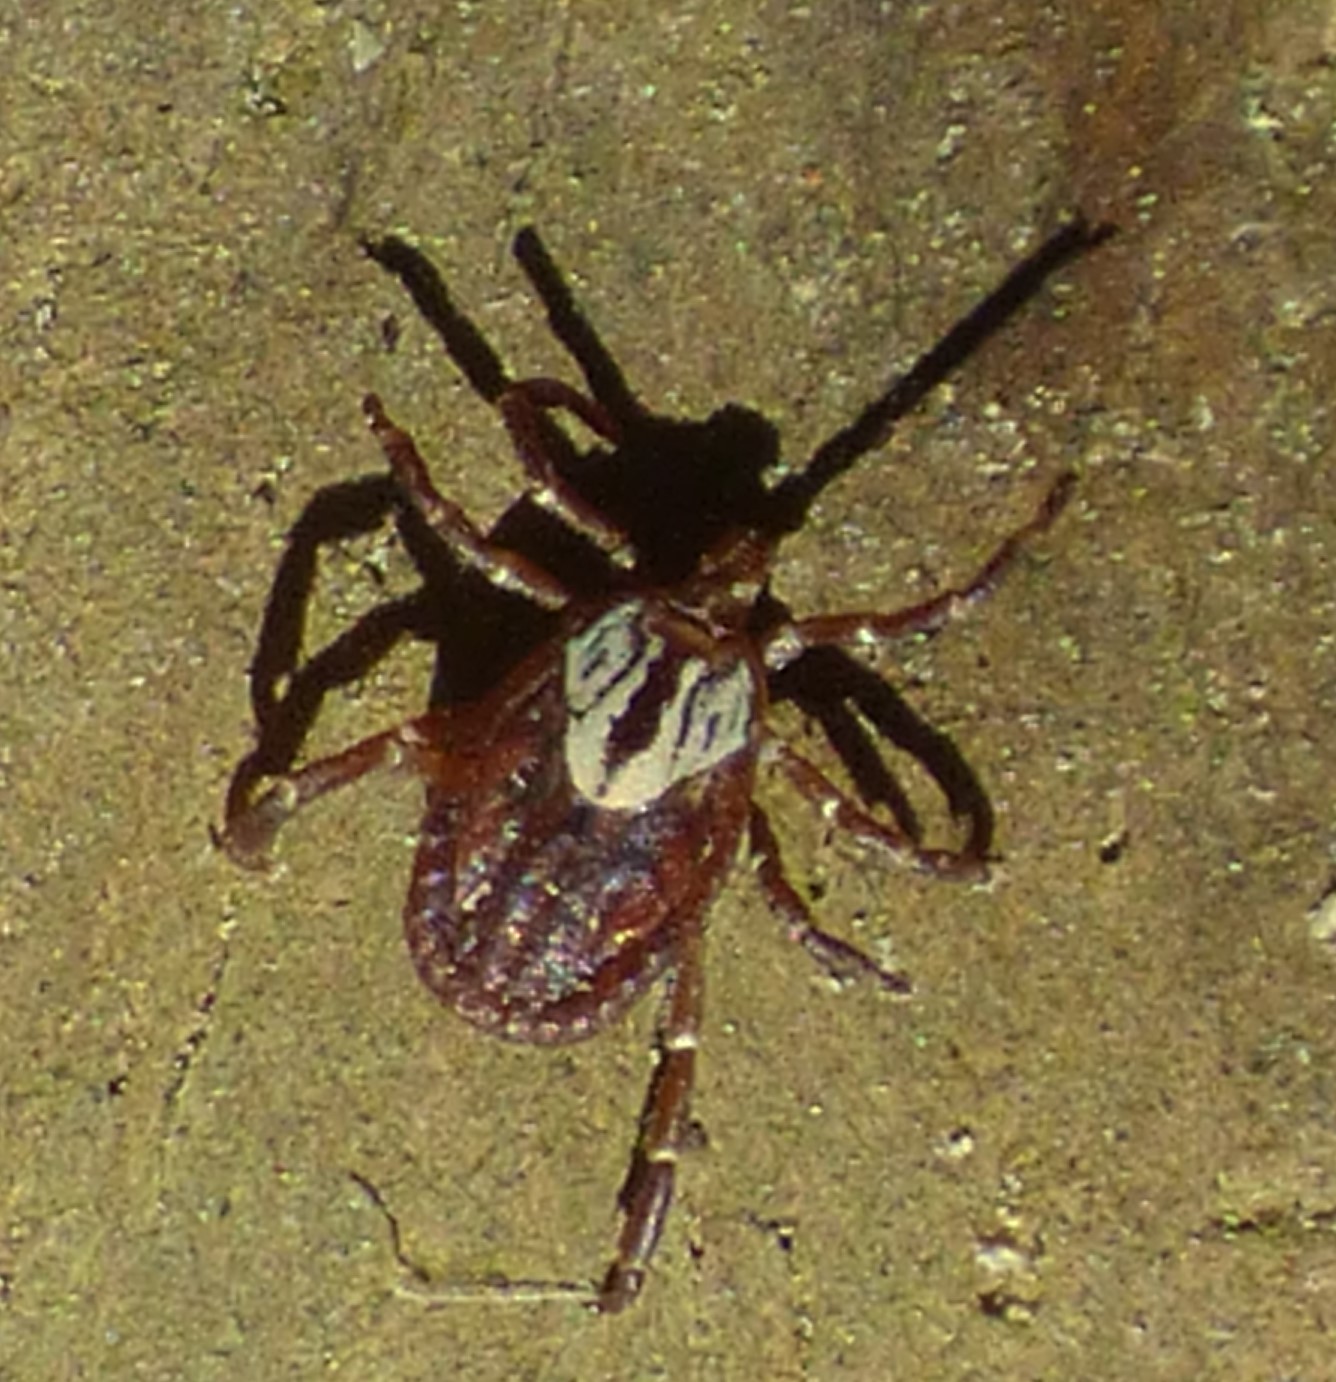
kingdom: Animalia
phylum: Arthropoda
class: Arachnida
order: Ixodida
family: Ixodidae
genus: Amblyomma
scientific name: Amblyomma maculatum
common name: Gulf coast tick
